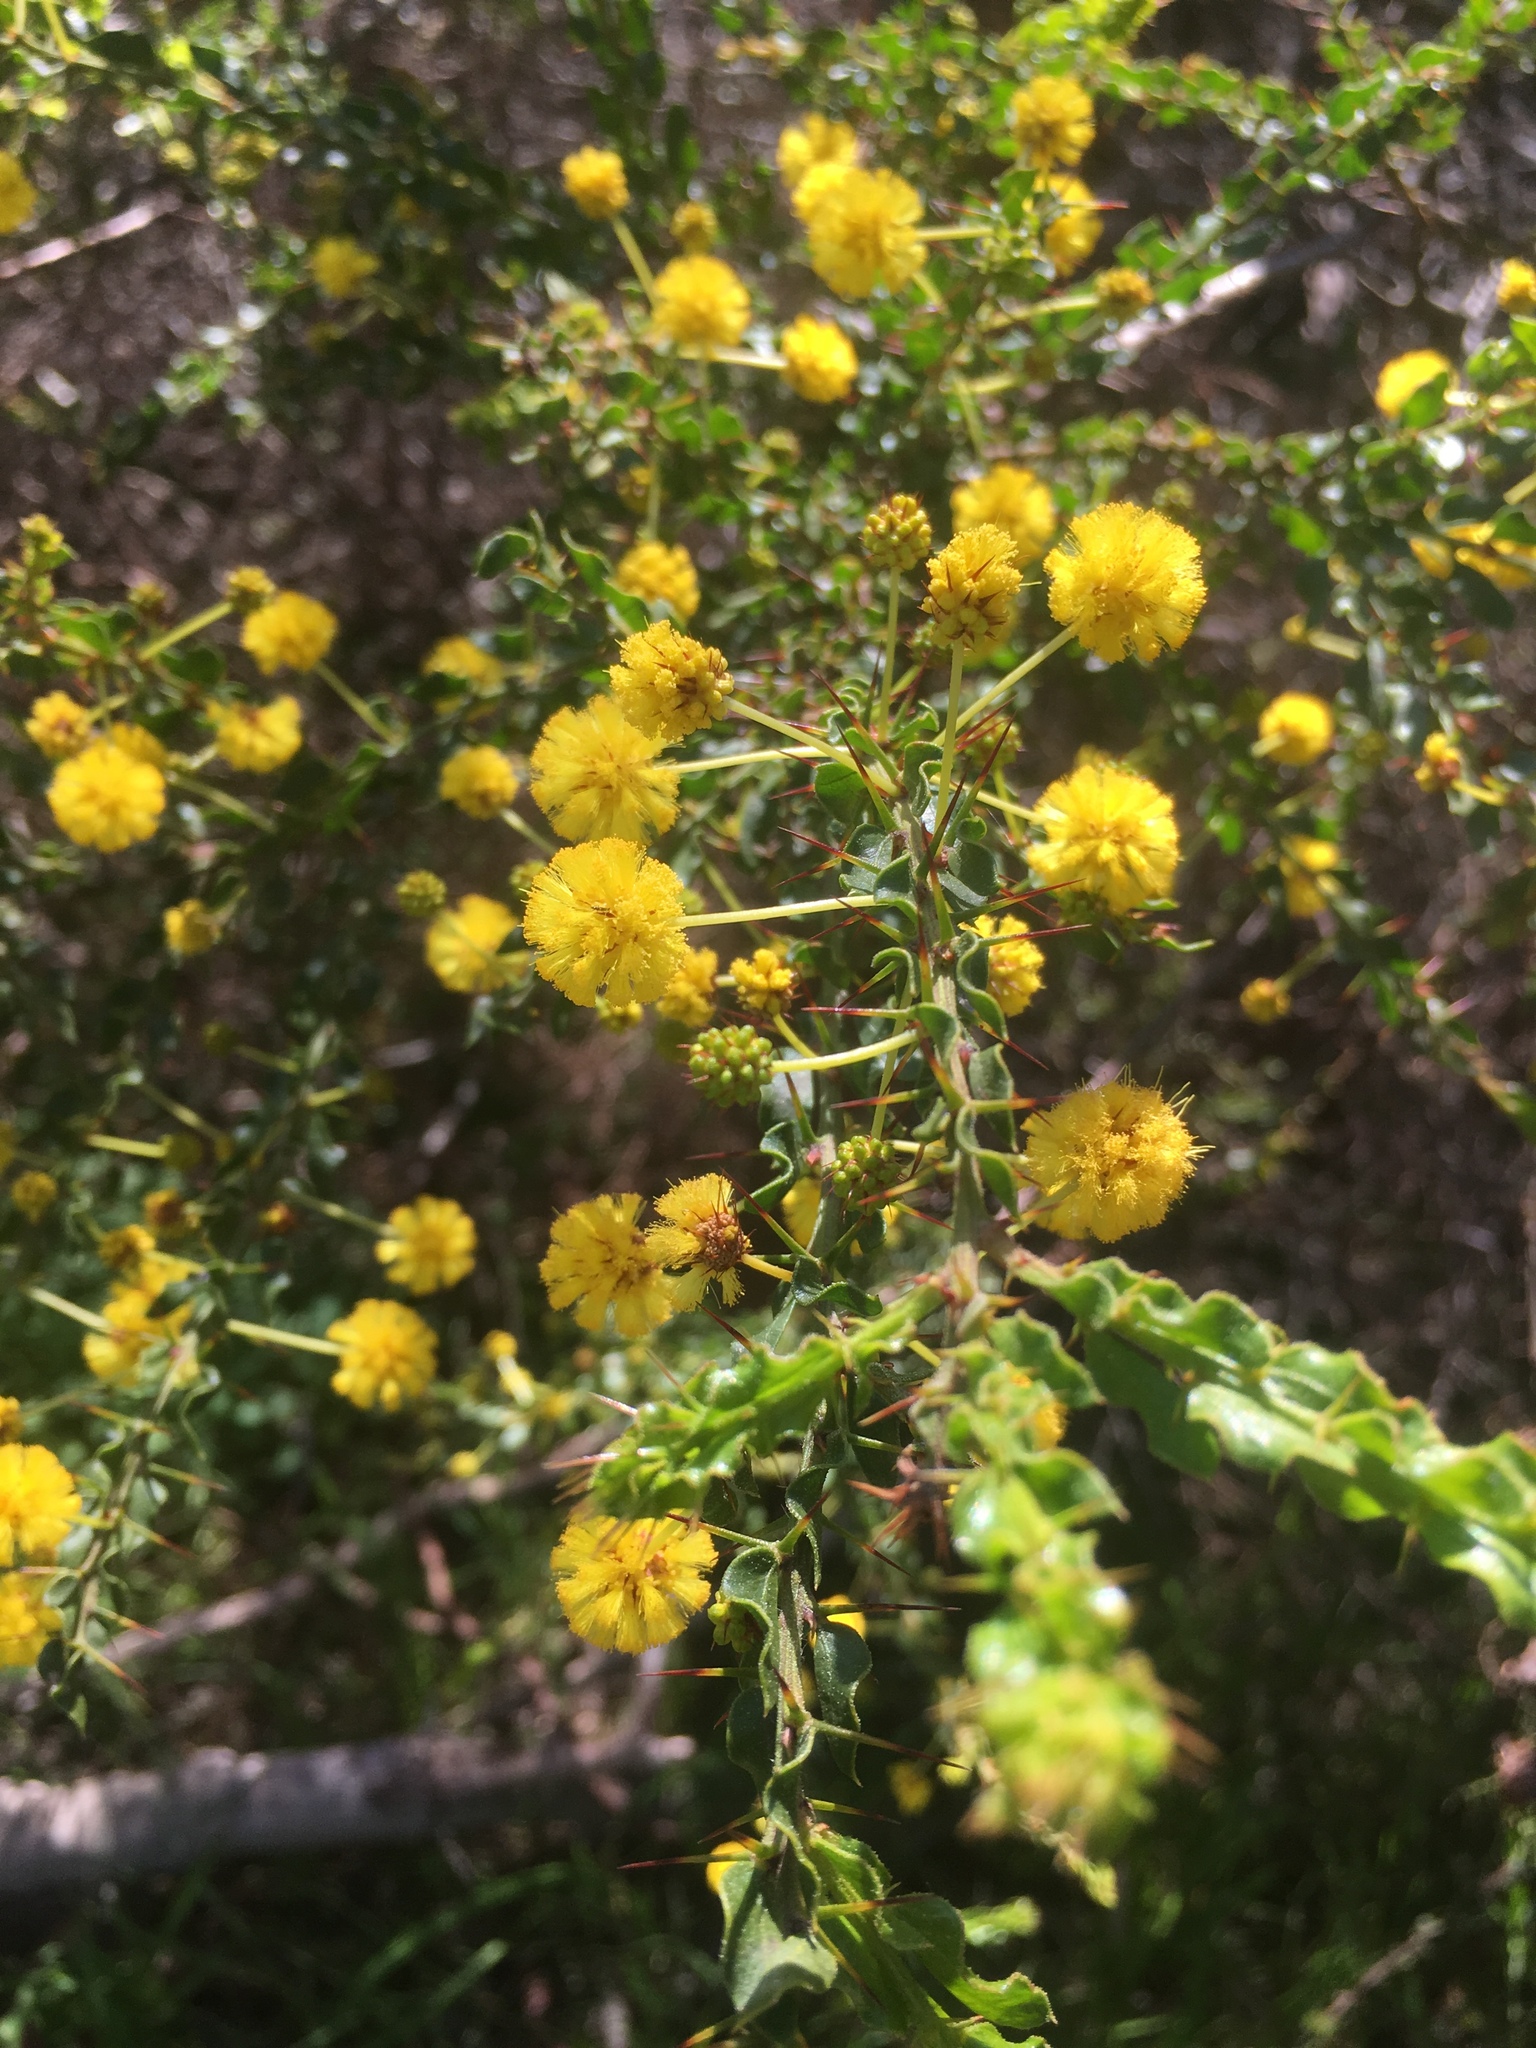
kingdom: Plantae
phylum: Tracheophyta
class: Magnoliopsida
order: Fabales
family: Fabaceae
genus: Acacia
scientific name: Acacia paradoxa
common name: Paradox acacia
